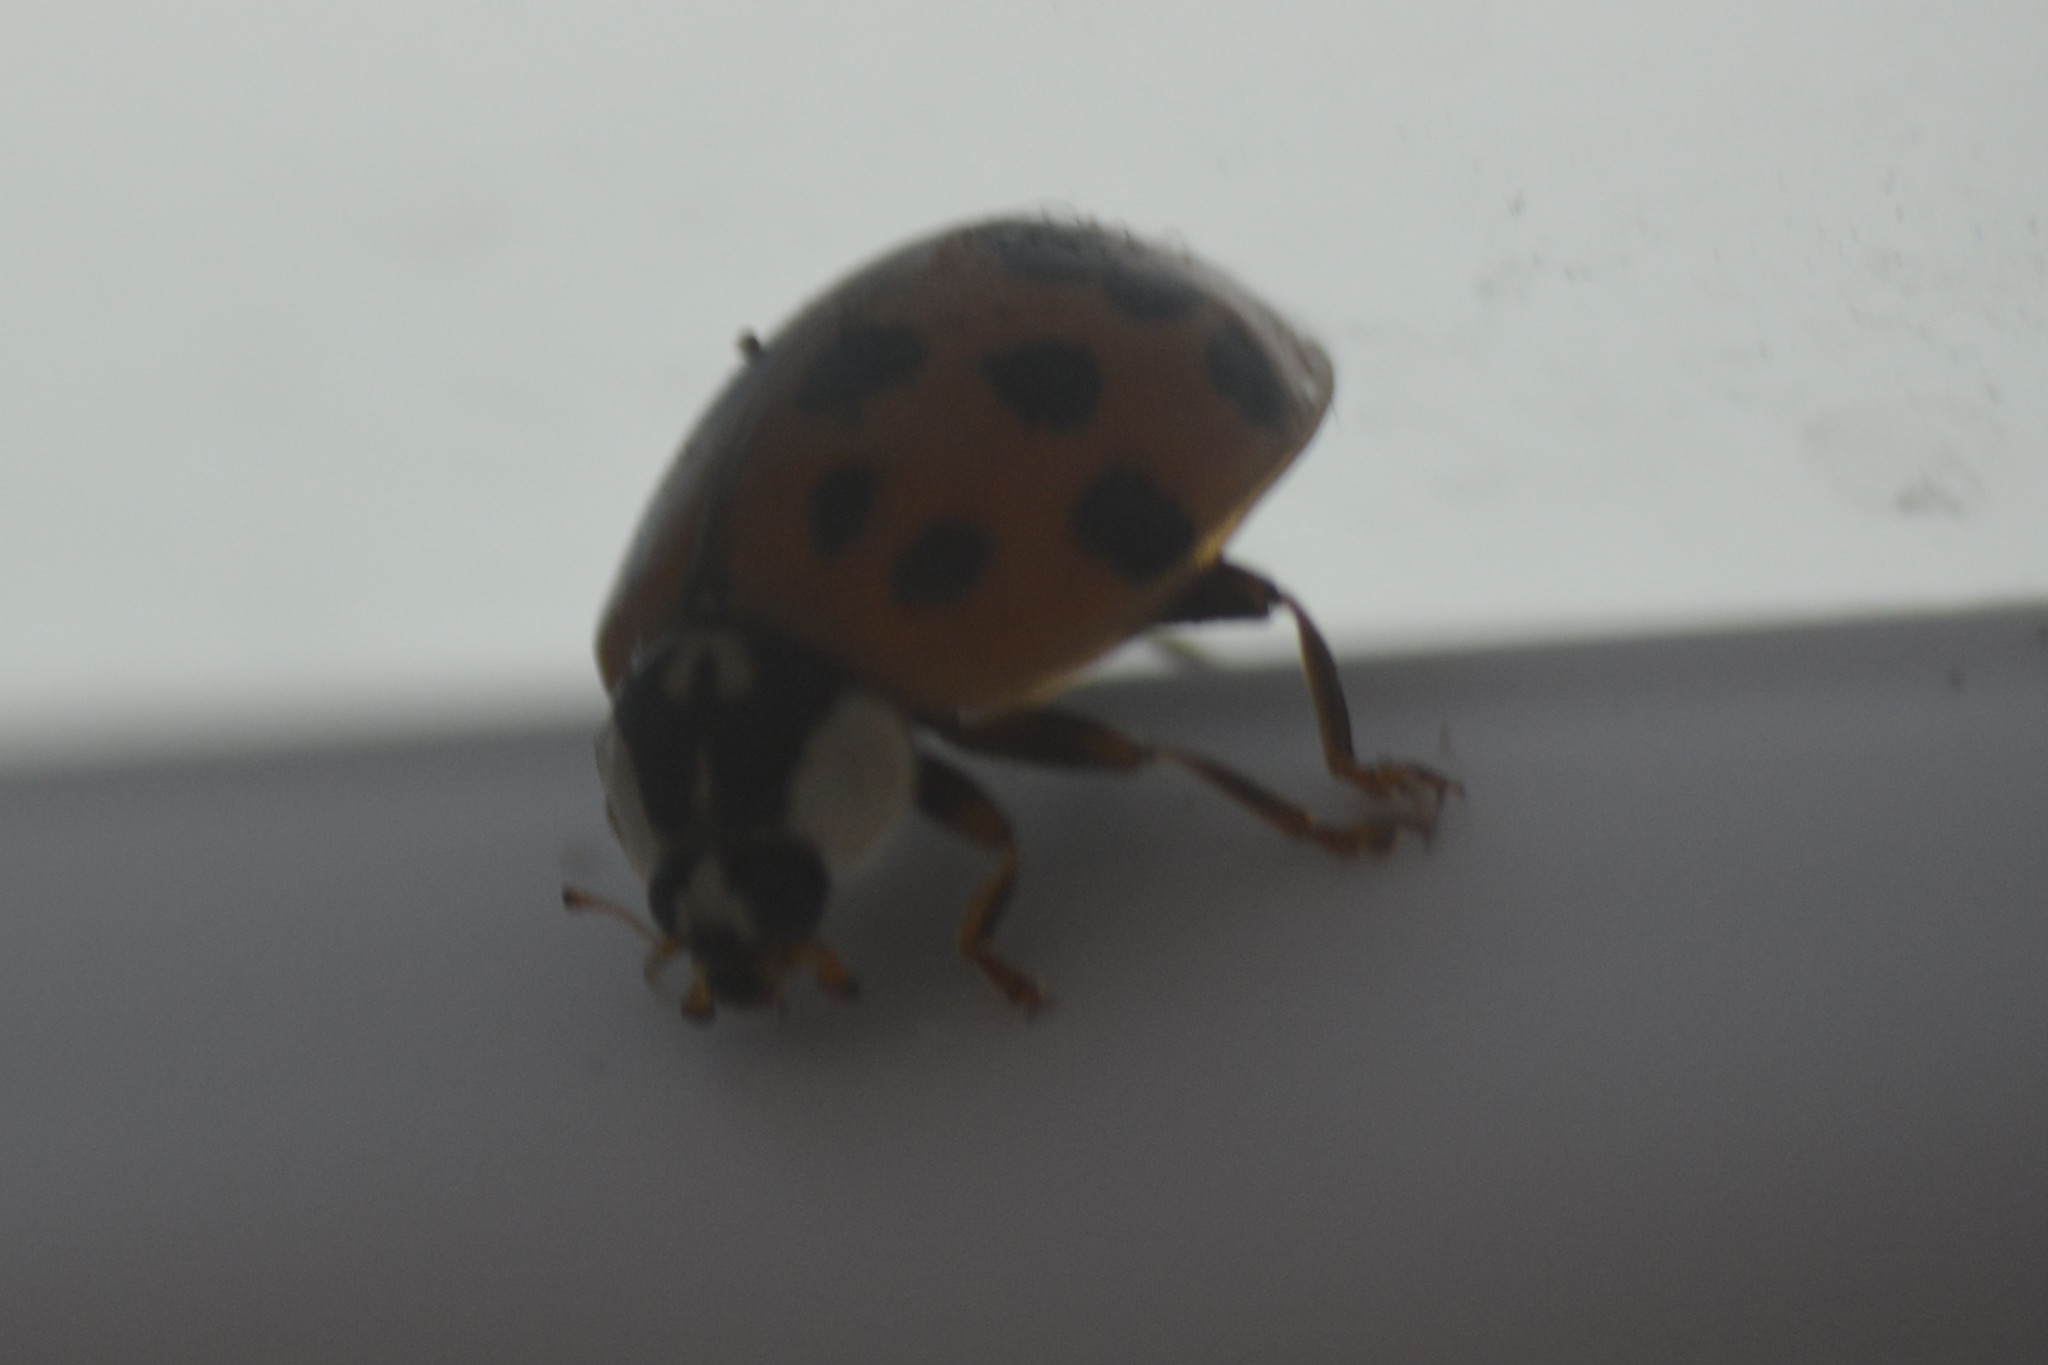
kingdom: Animalia
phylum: Arthropoda
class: Insecta
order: Coleoptera
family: Coccinellidae
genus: Harmonia
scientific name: Harmonia axyridis
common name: Harlequin ladybird
